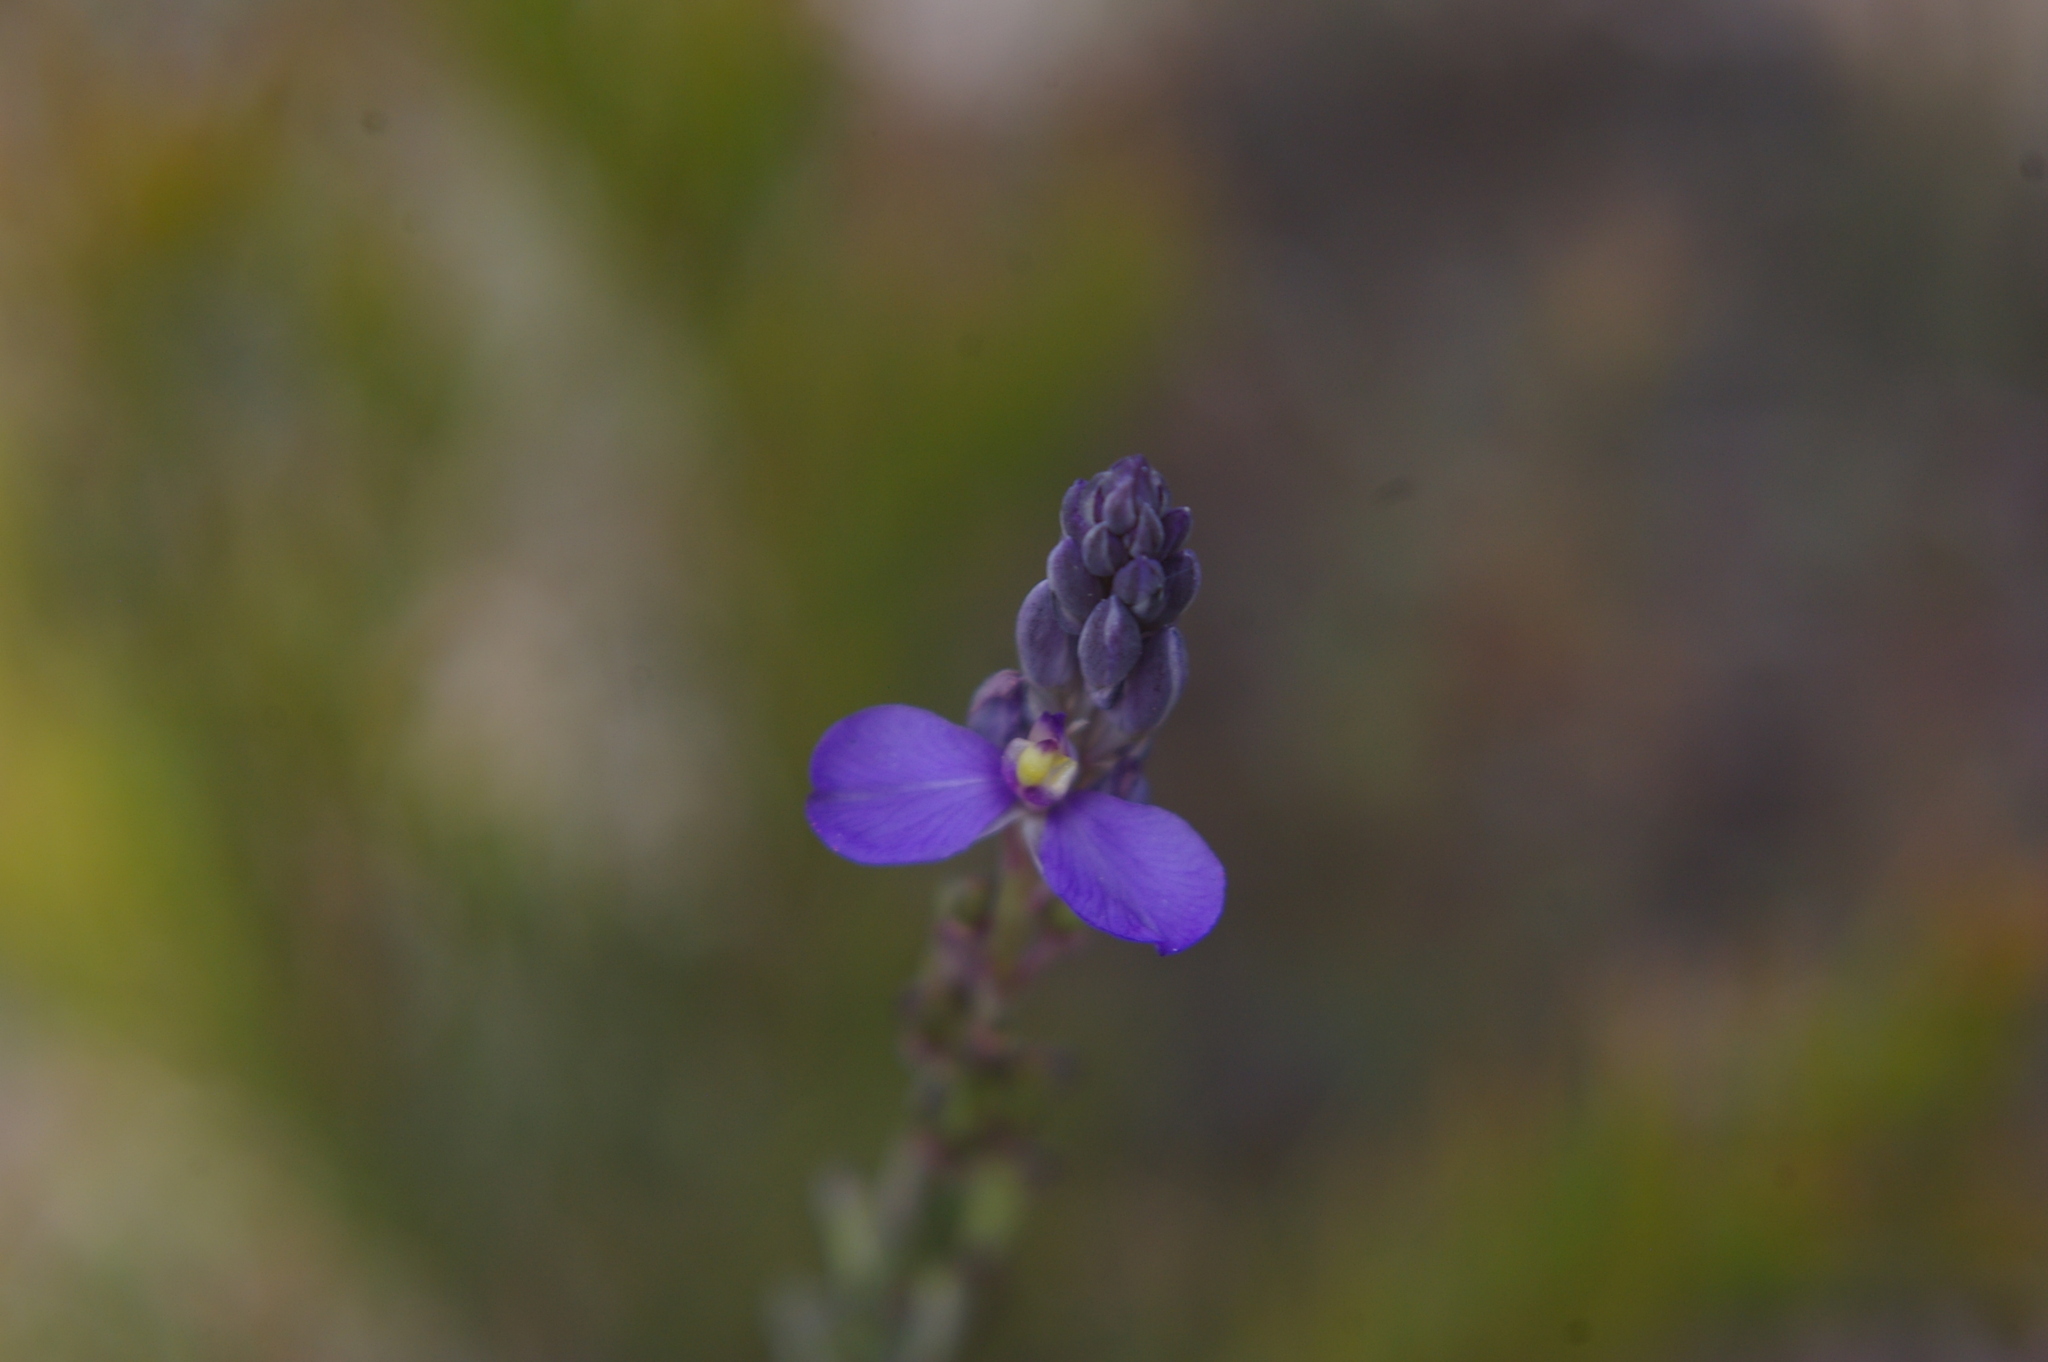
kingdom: Plantae
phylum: Tracheophyta
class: Magnoliopsida
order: Fabales
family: Polygalaceae
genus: Comesperma
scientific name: Comesperma calymega
